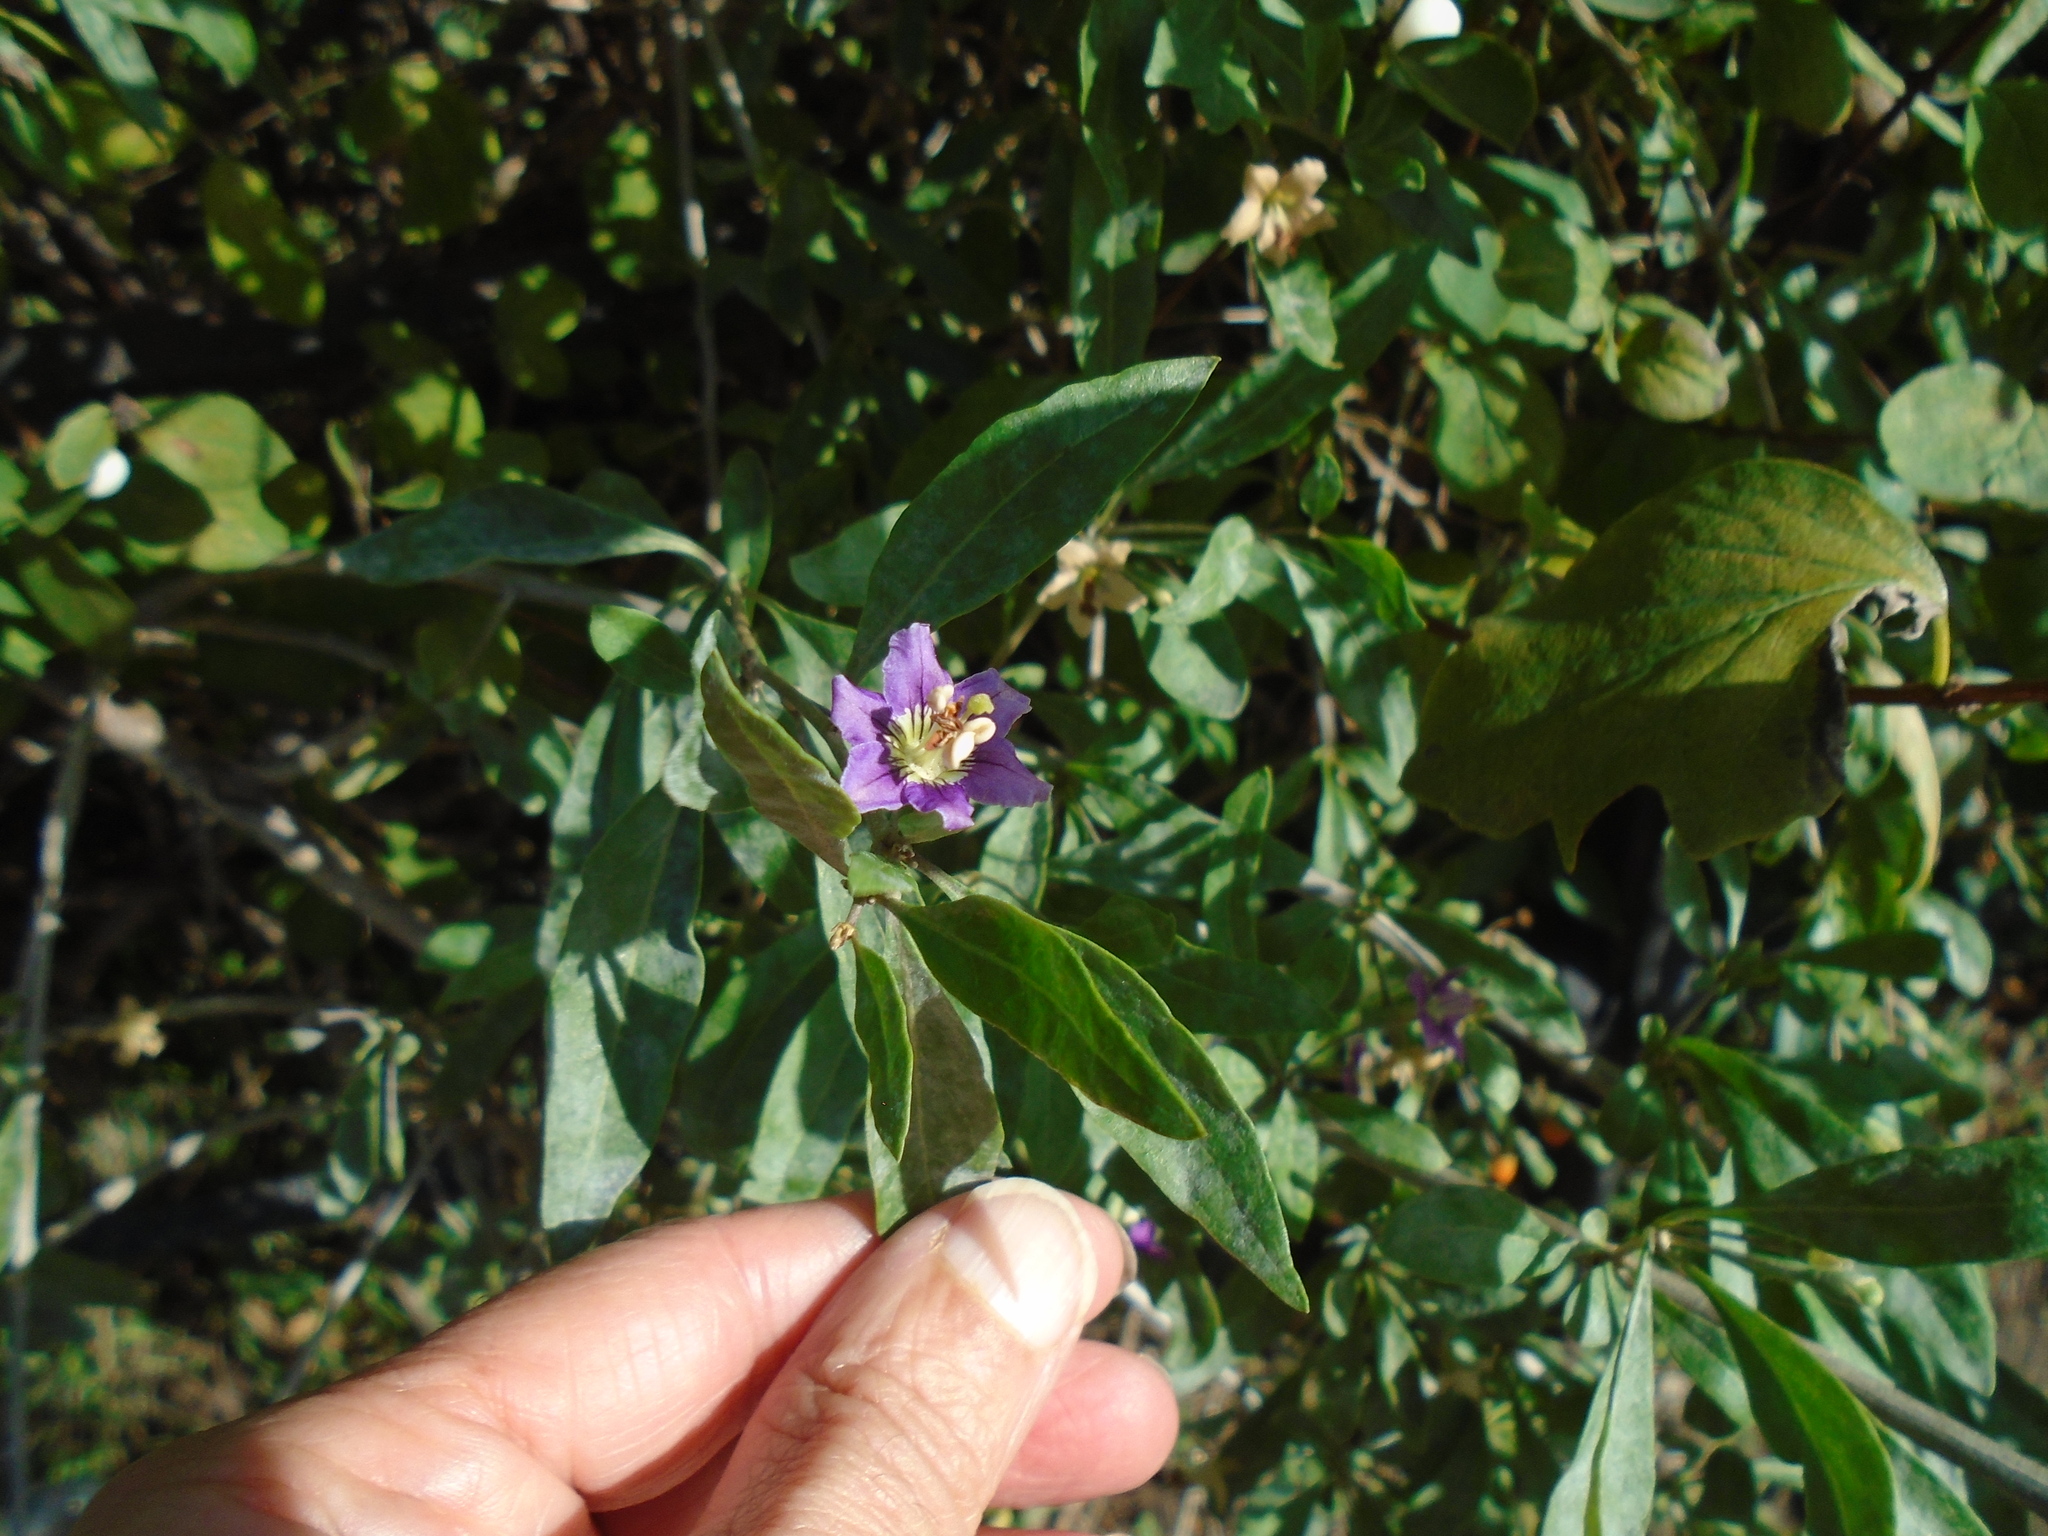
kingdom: Plantae
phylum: Tracheophyta
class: Magnoliopsida
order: Solanales
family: Solanaceae
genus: Lycium
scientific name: Lycium barbarum
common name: Duke of argyll's teaplant
